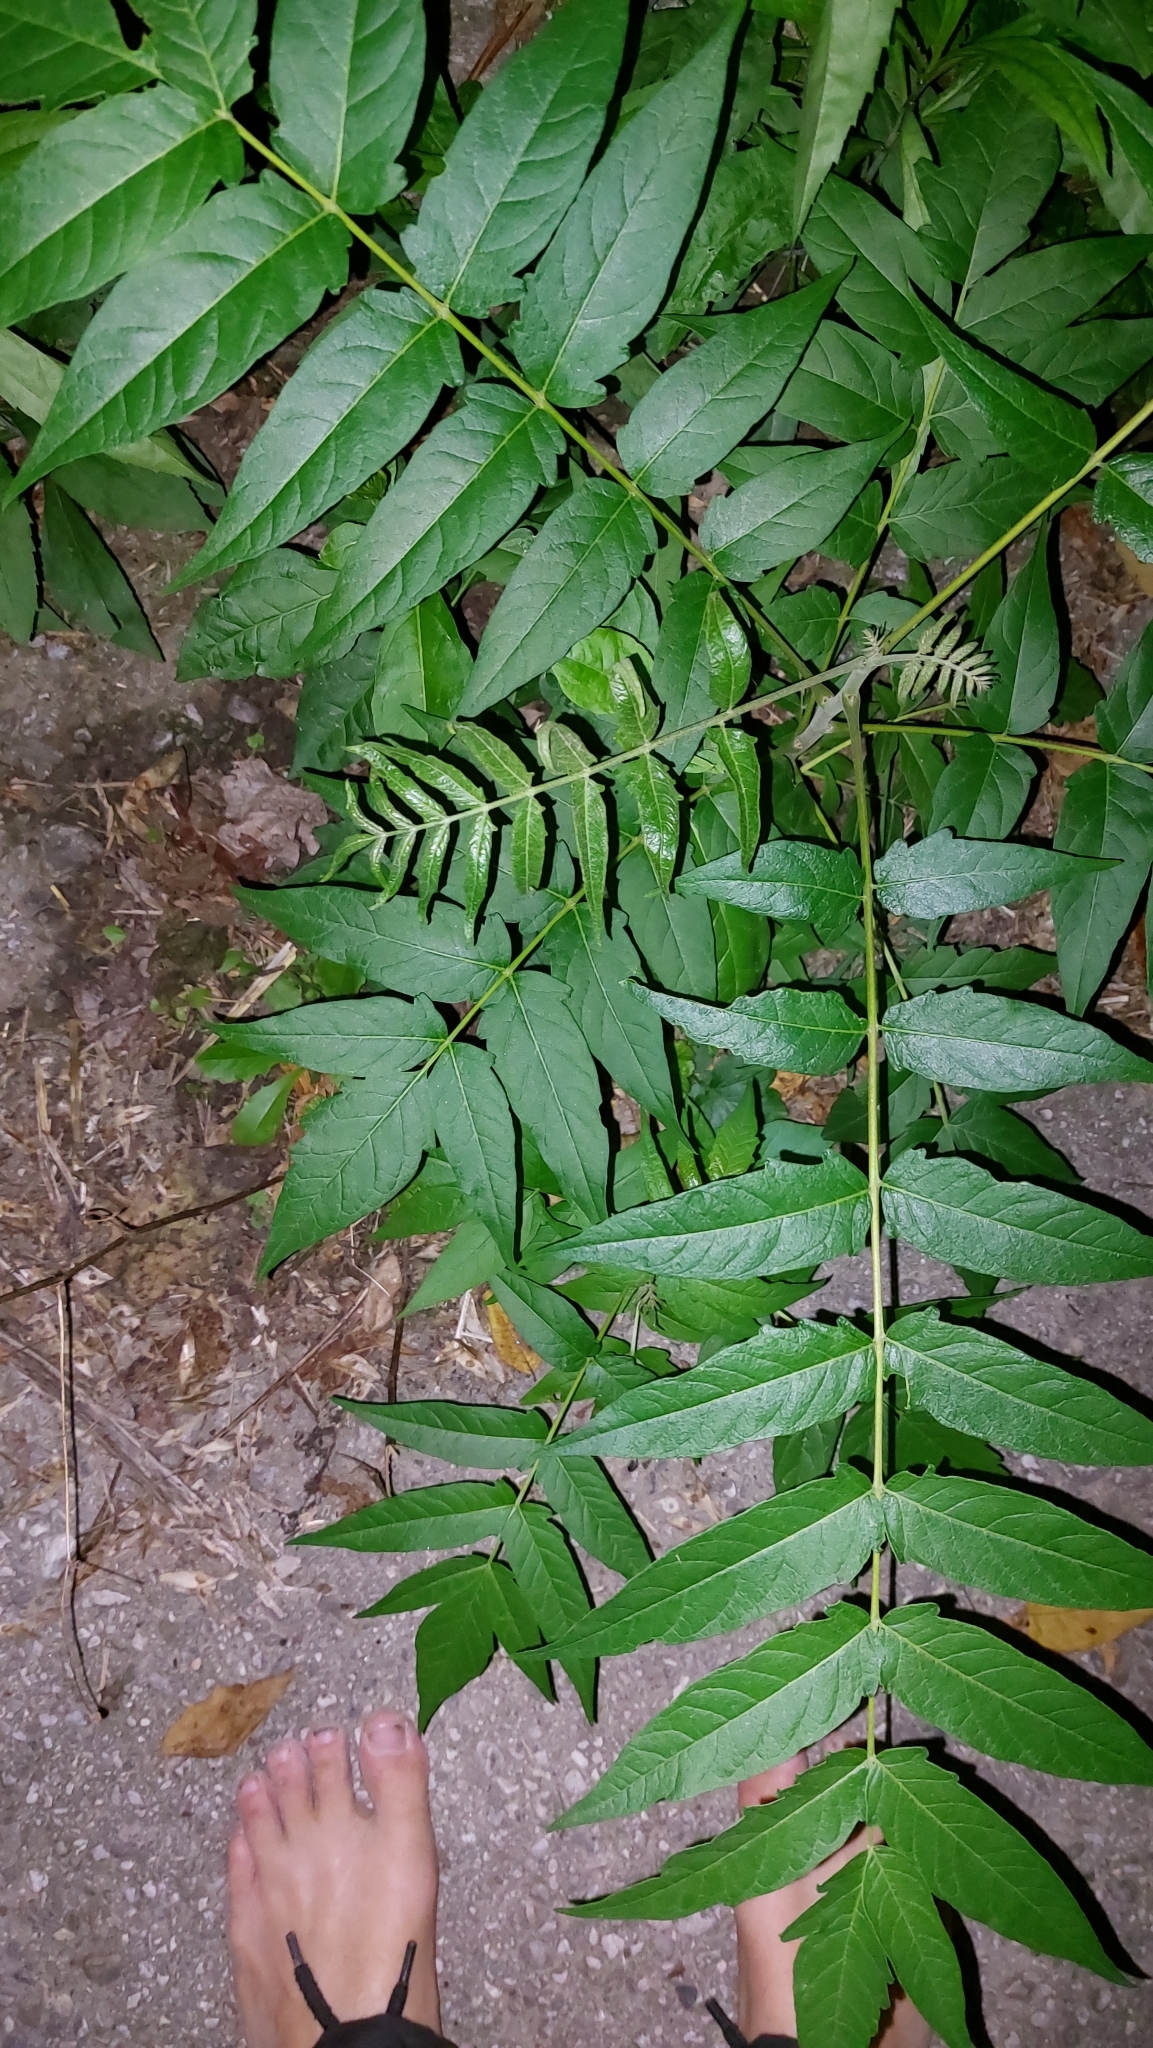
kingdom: Plantae
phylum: Tracheophyta
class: Magnoliopsida
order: Sapindales
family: Simaroubaceae
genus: Ailanthus
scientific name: Ailanthus altissima
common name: Tree-of-heaven
